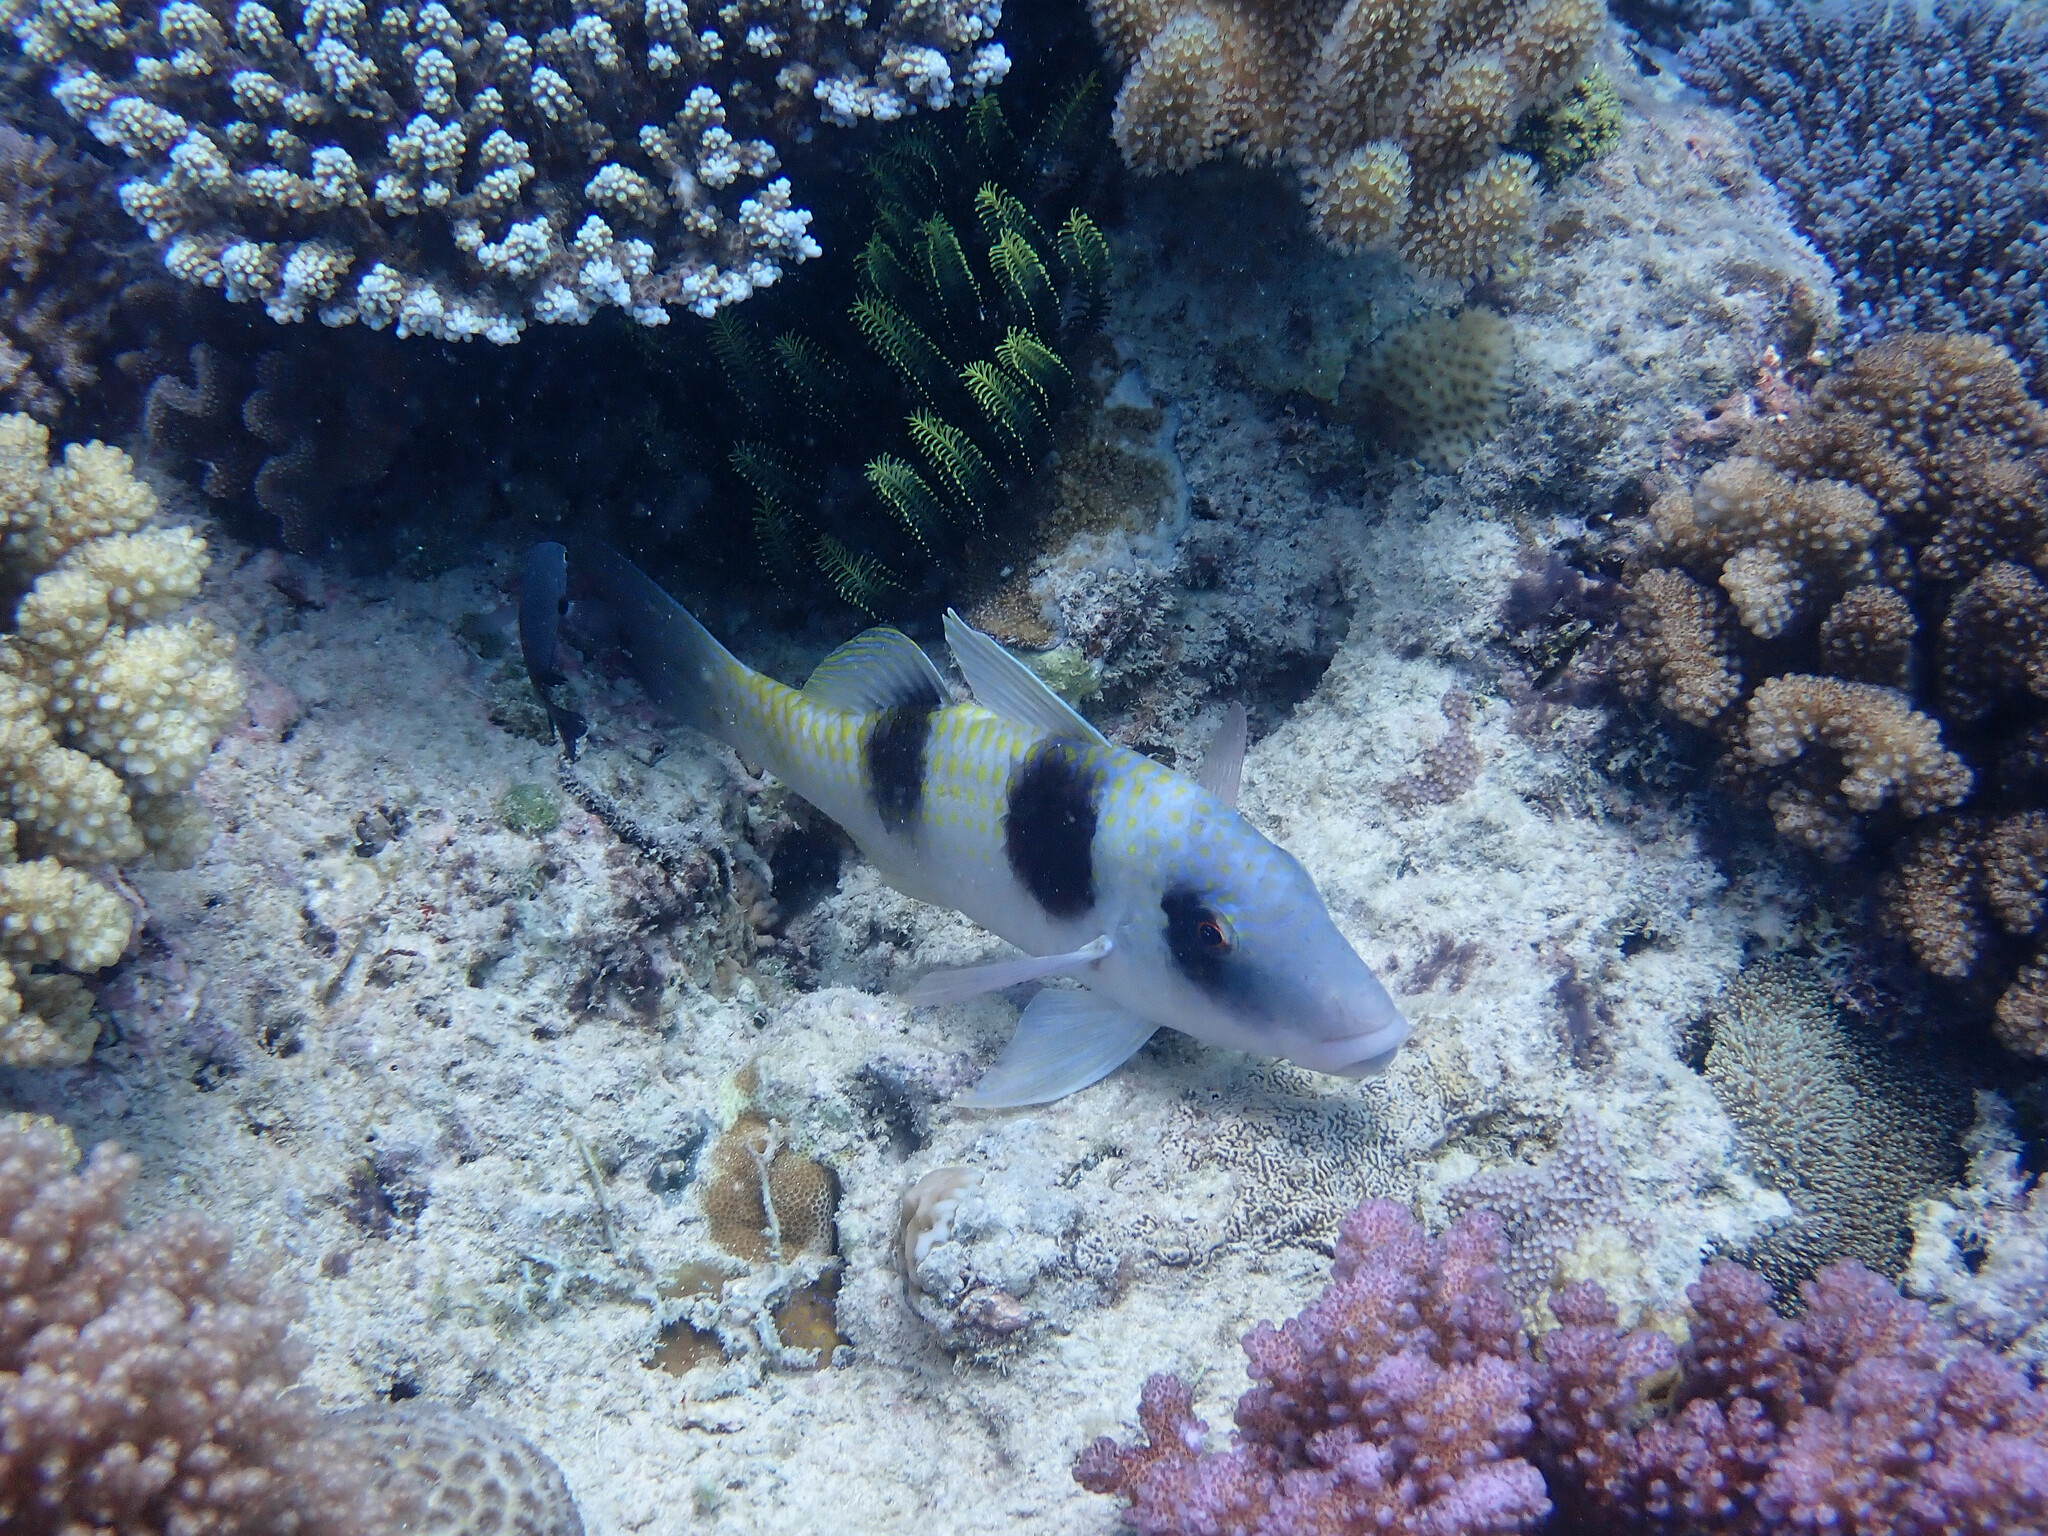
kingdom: Animalia
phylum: Chordata
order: Perciformes
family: Mullidae
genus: Parupeneus
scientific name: Parupeneus crassilabris
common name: Doublebar goatfish
